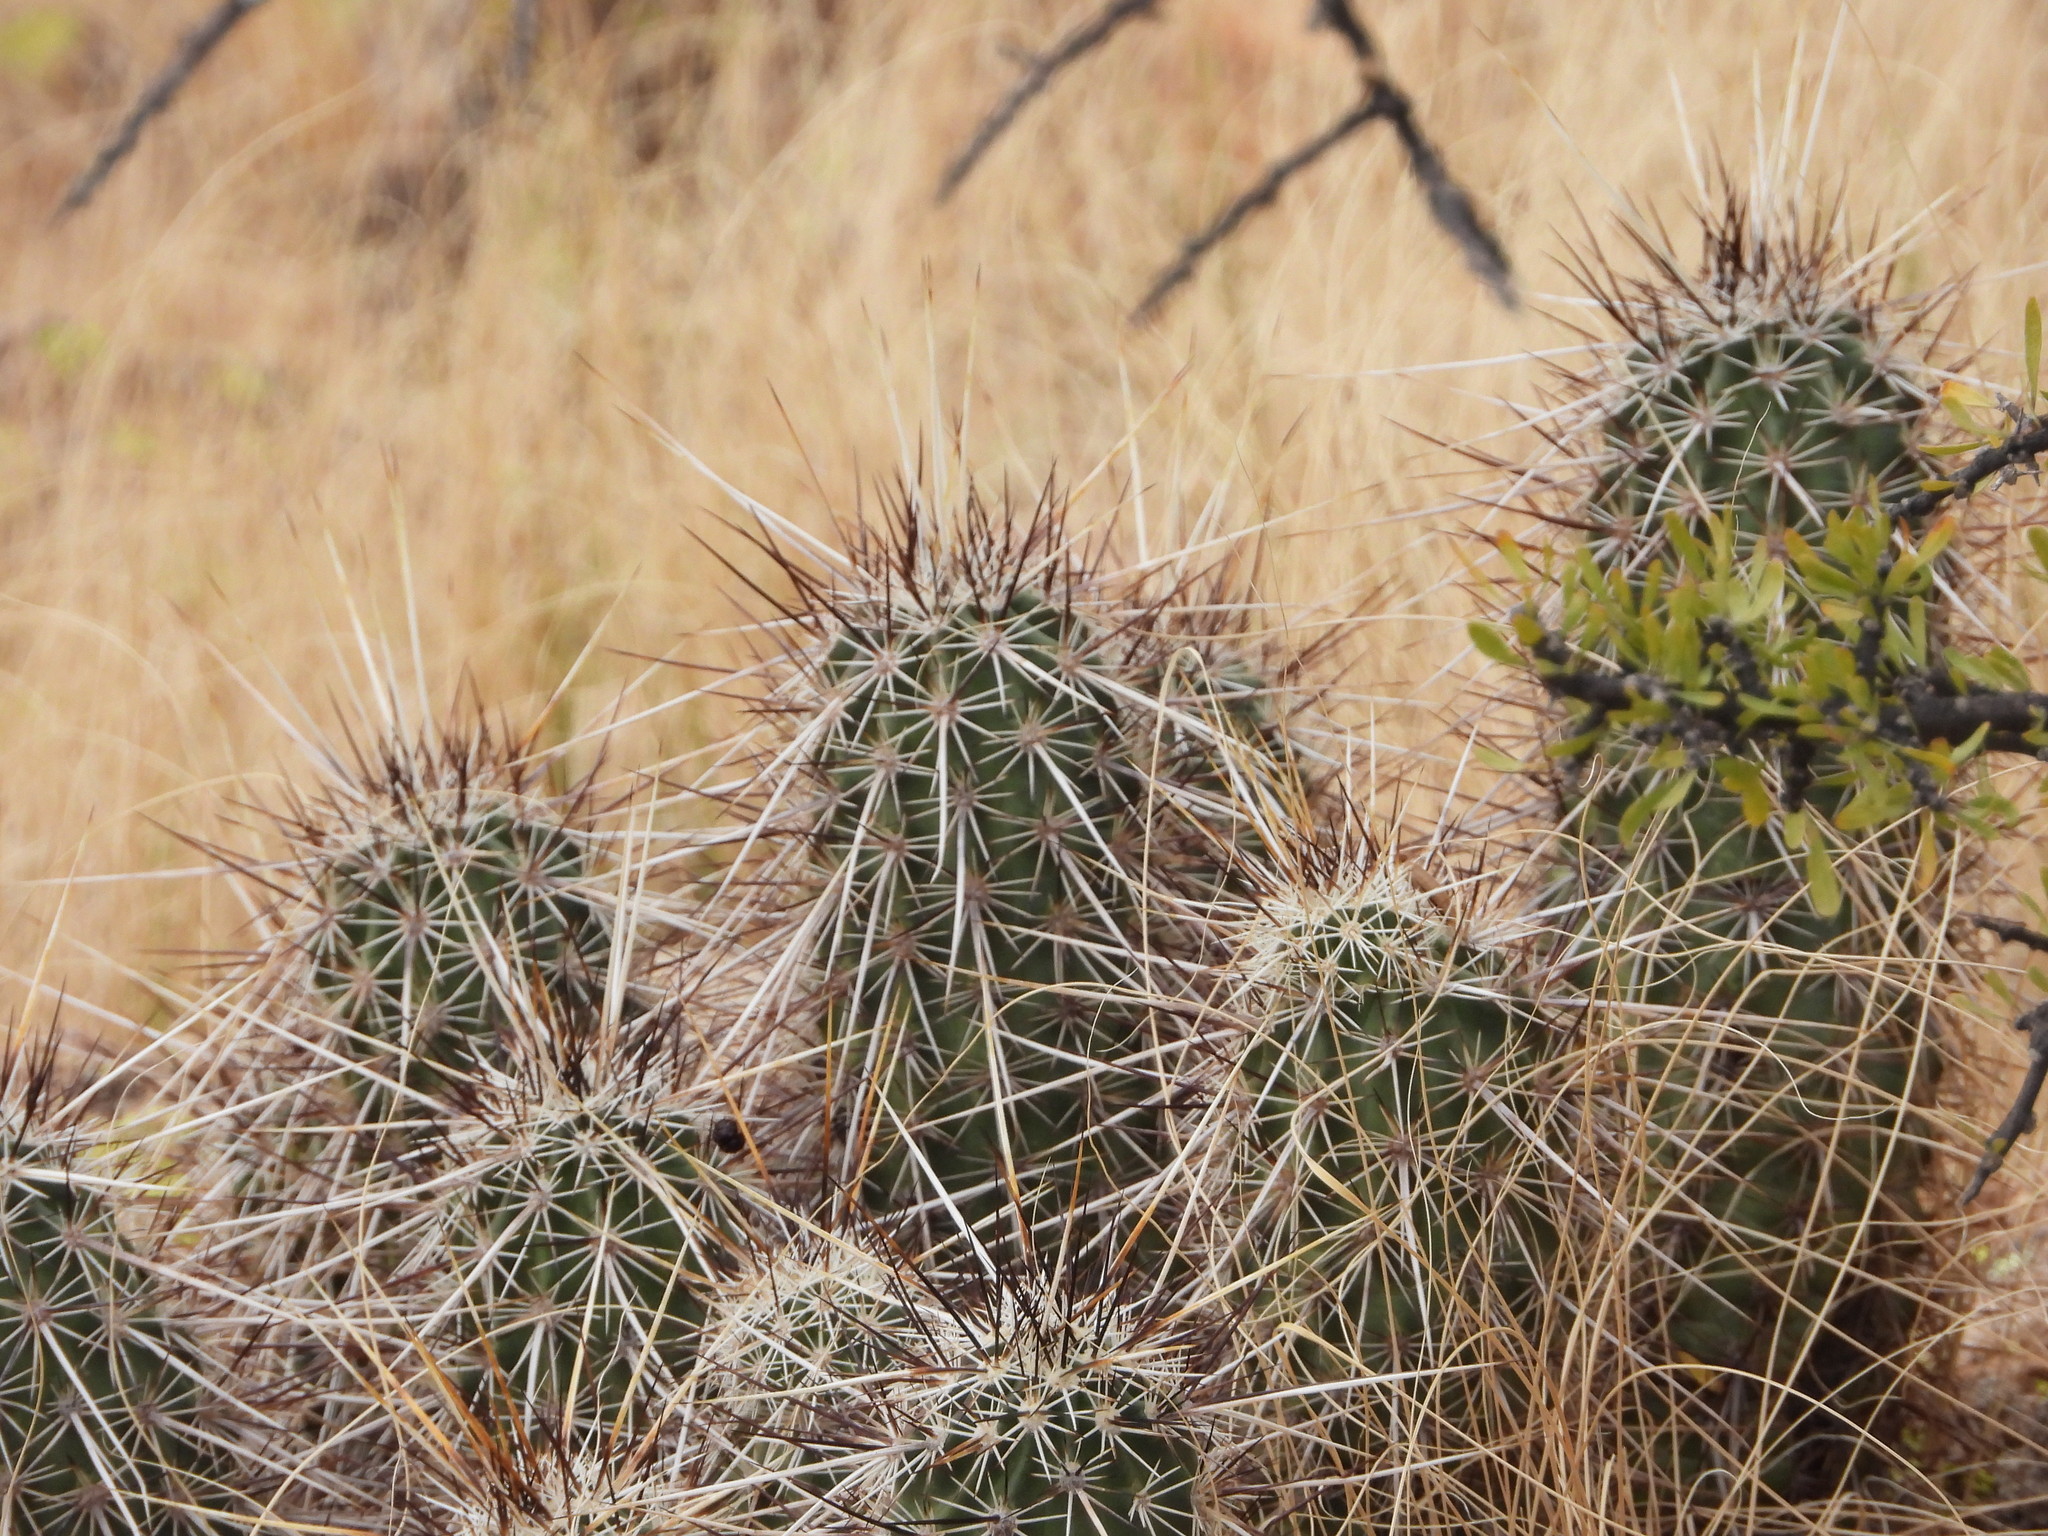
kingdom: Plantae
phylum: Tracheophyta
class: Magnoliopsida
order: Caryophyllales
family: Cactaceae
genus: Echinocereus
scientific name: Echinocereus engelmannii
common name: Engelmann's hedgehog cactus
